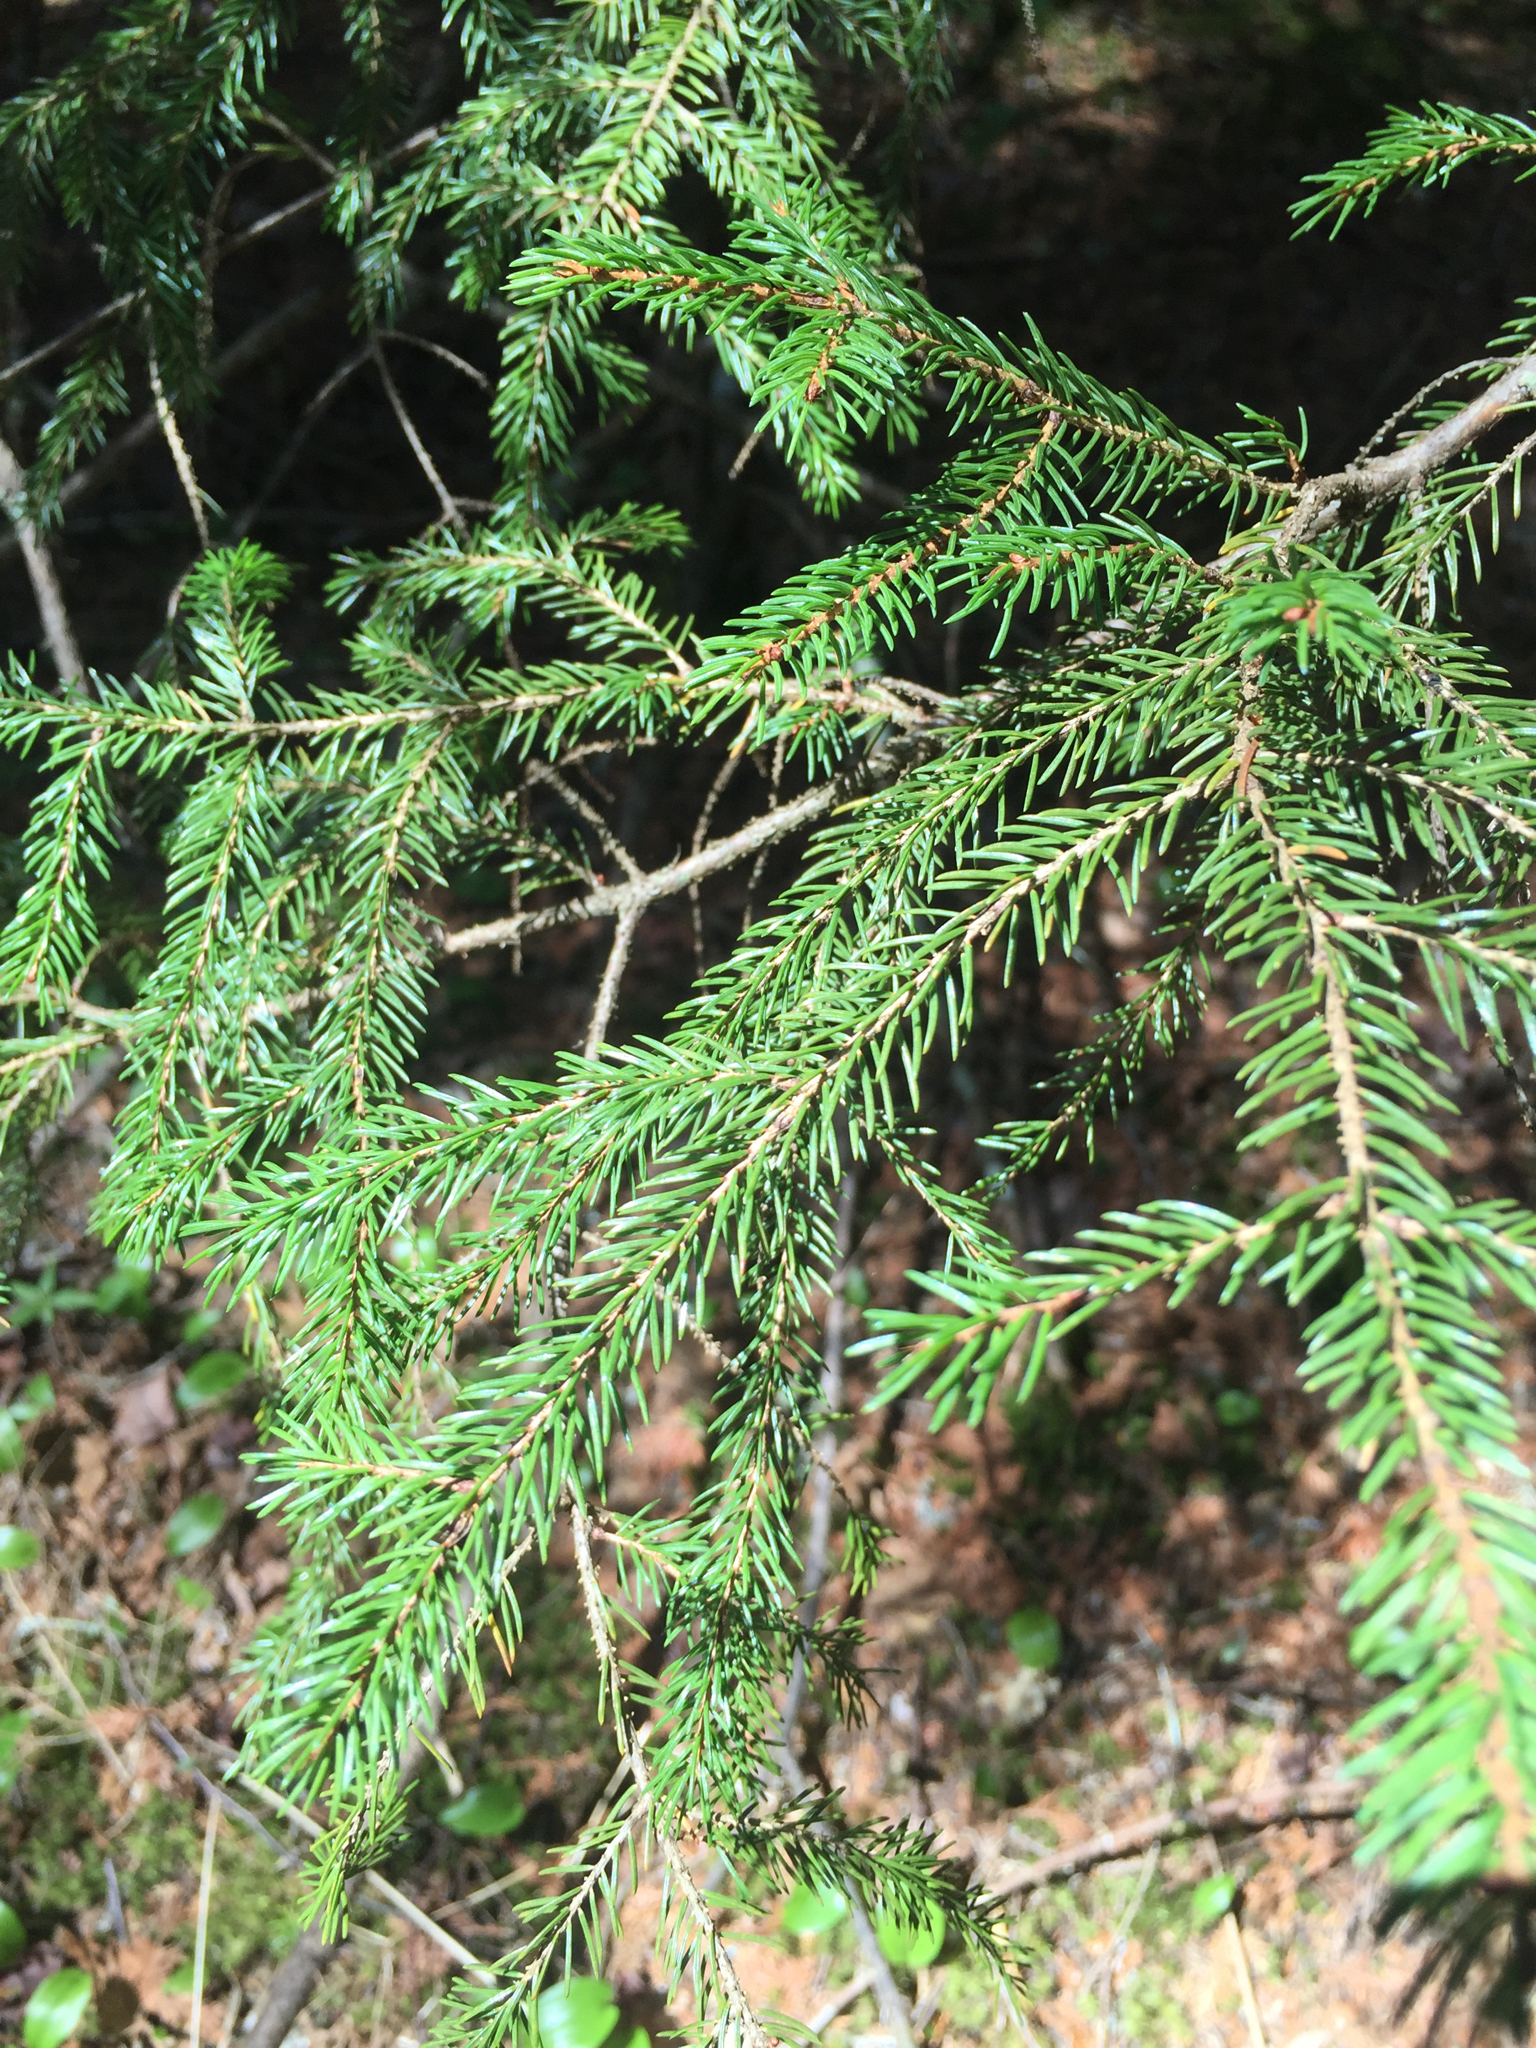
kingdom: Plantae
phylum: Tracheophyta
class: Pinopsida
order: Pinales
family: Pinaceae
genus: Picea
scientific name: Picea rubens
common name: Red spruce
